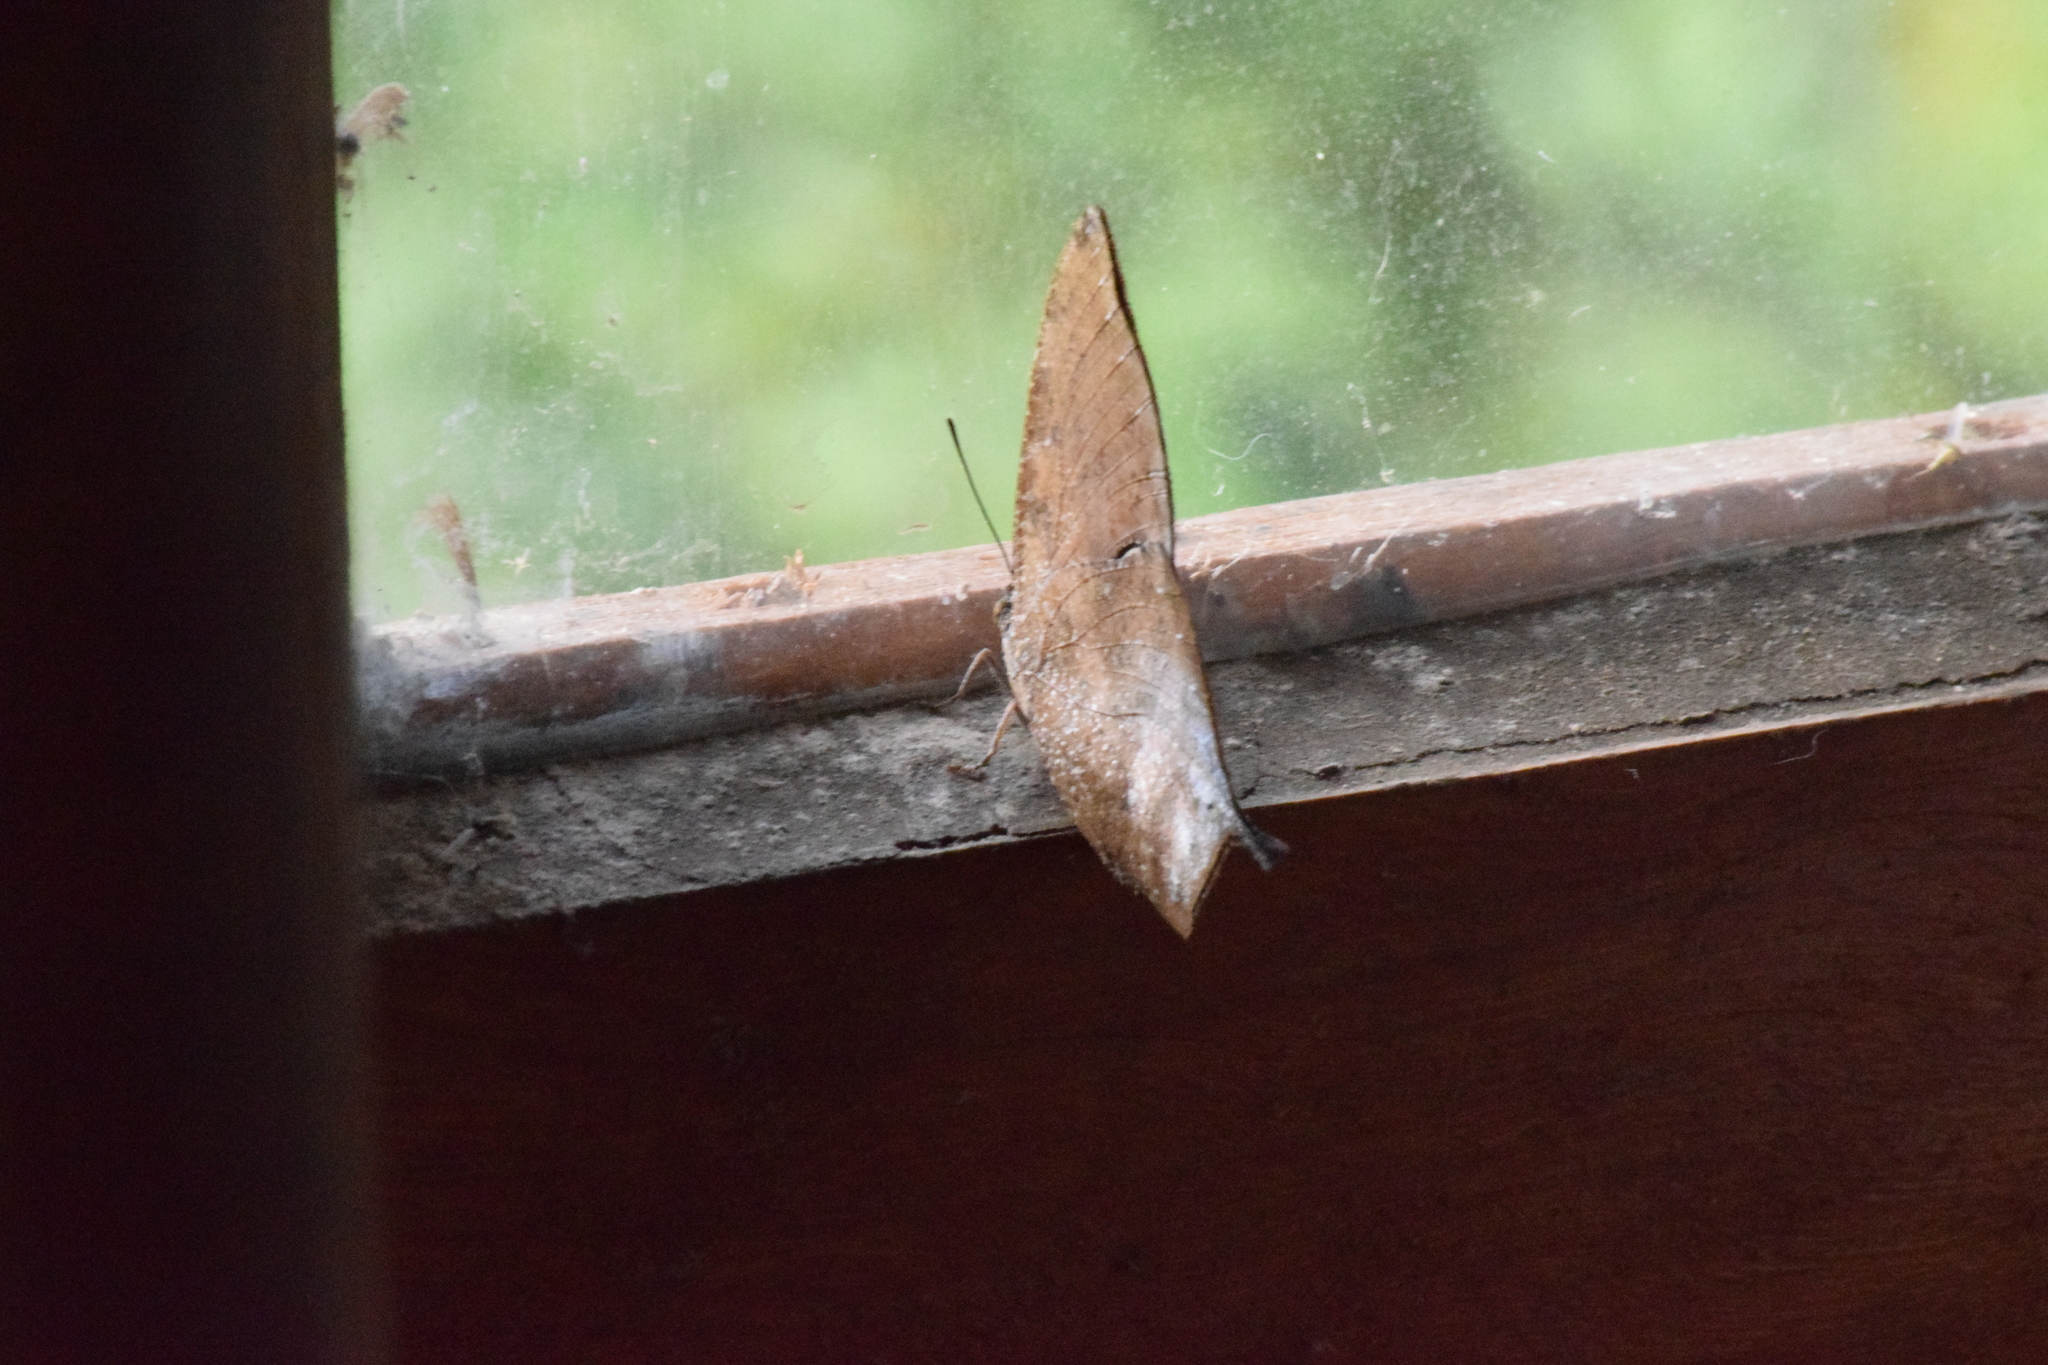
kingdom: Animalia
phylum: Arthropoda
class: Insecta
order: Lepidoptera
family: Nymphalidae
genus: Memphis
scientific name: Memphis moruus
